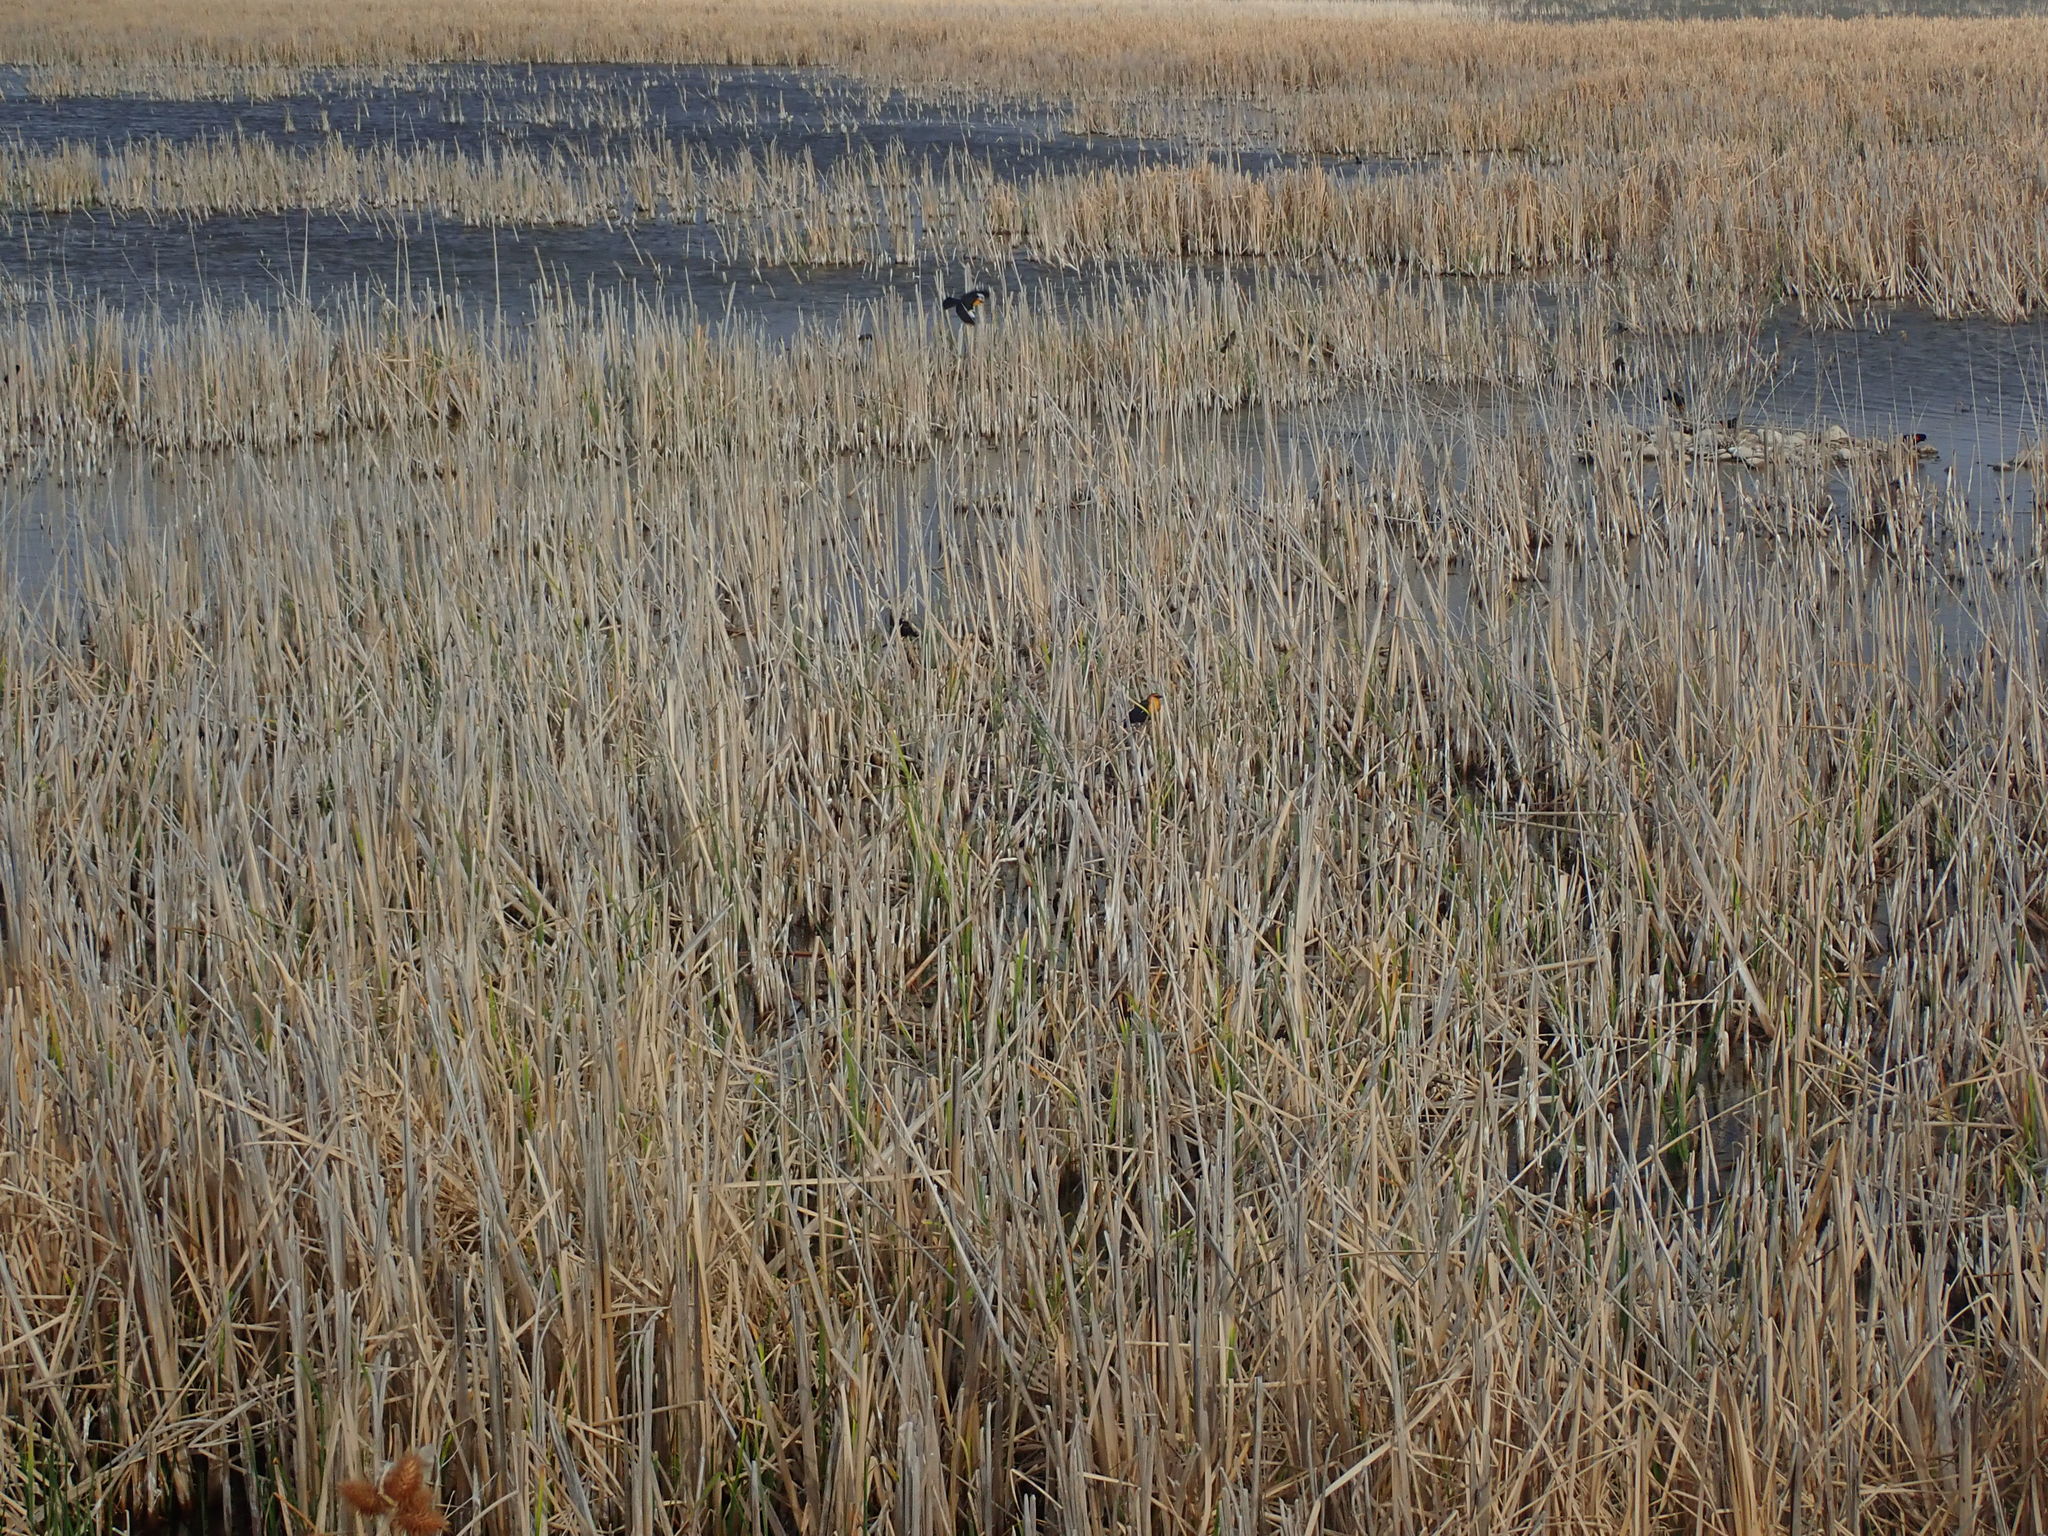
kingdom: Animalia
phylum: Chordata
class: Aves
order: Passeriformes
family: Icteridae
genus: Xanthocephalus
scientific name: Xanthocephalus xanthocephalus
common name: Yellow-headed blackbird
